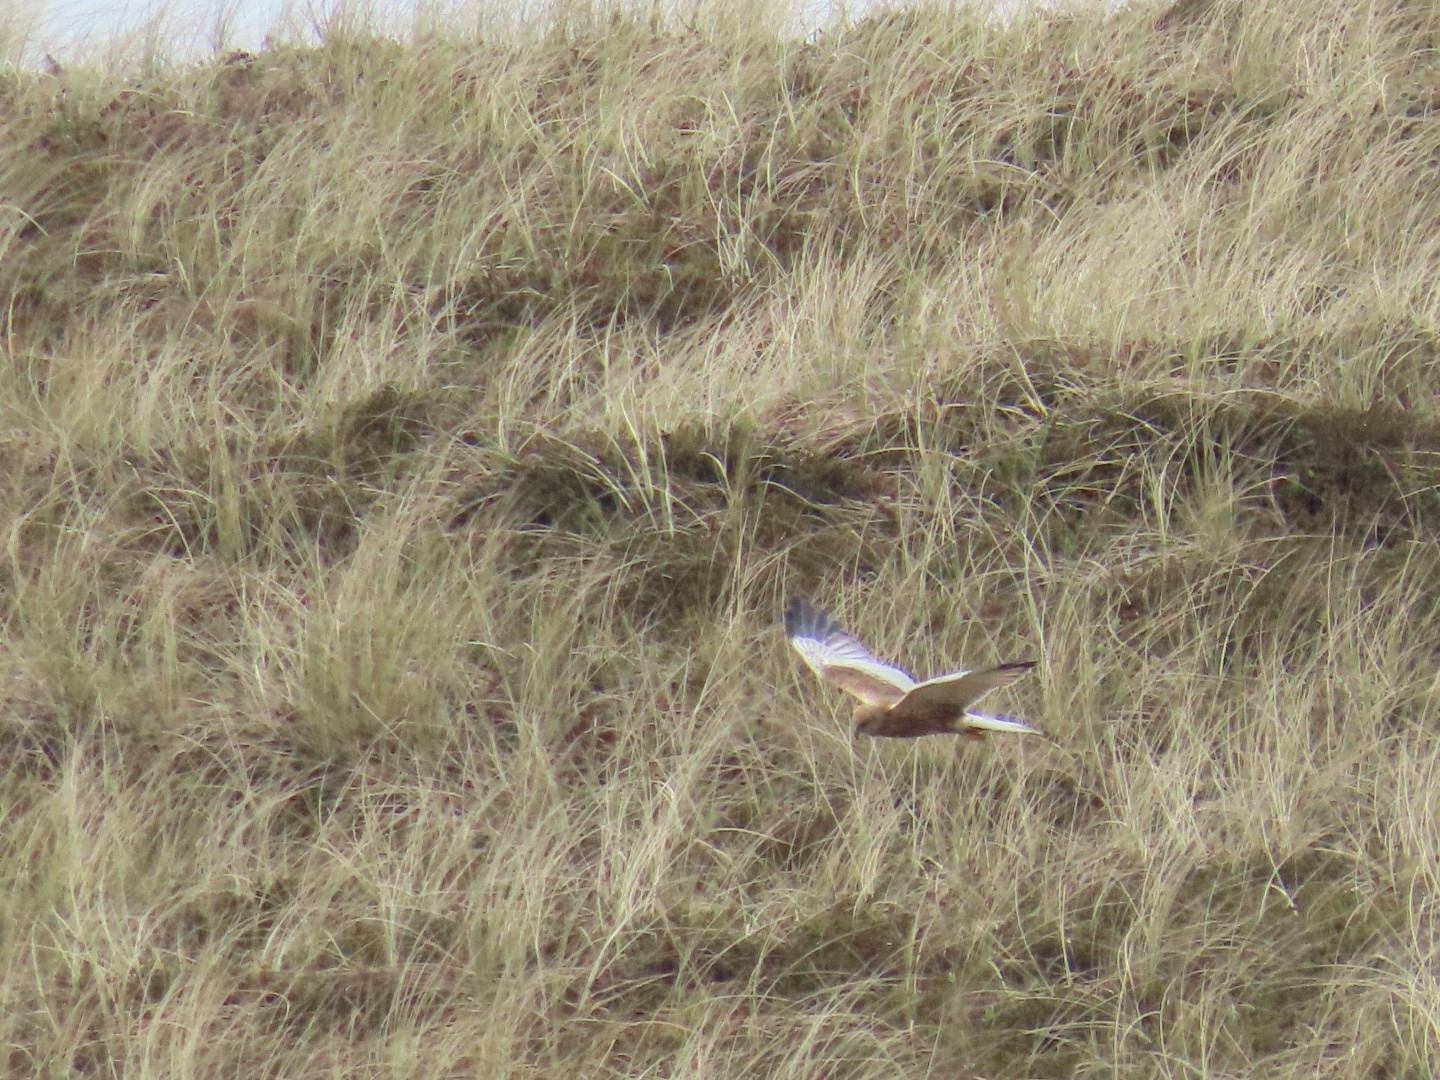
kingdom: Animalia
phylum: Chordata
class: Aves
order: Accipitriformes
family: Accipitridae
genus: Circus
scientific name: Circus aeruginosus
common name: Western marsh harrier
